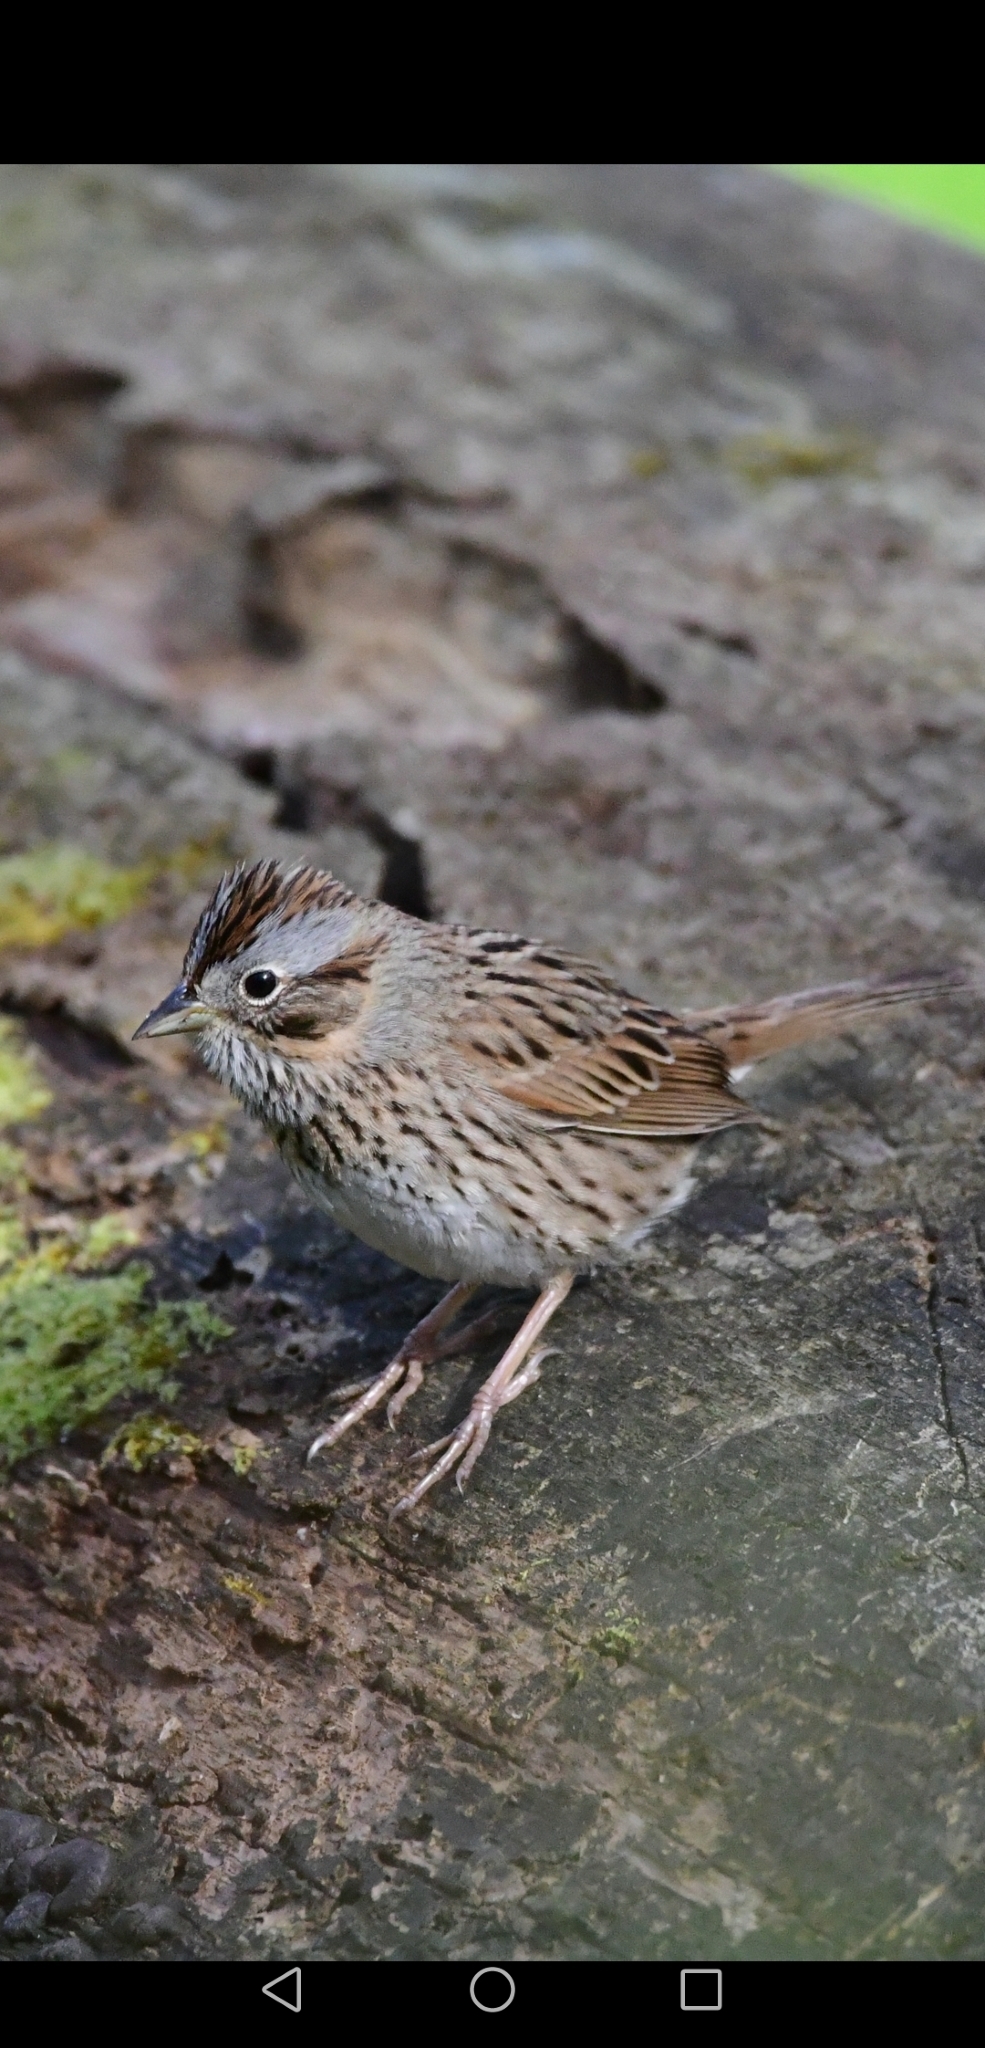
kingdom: Animalia
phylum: Chordata
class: Aves
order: Passeriformes
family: Passerellidae
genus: Melospiza
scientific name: Melospiza lincolnii
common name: Lincoln's sparrow
